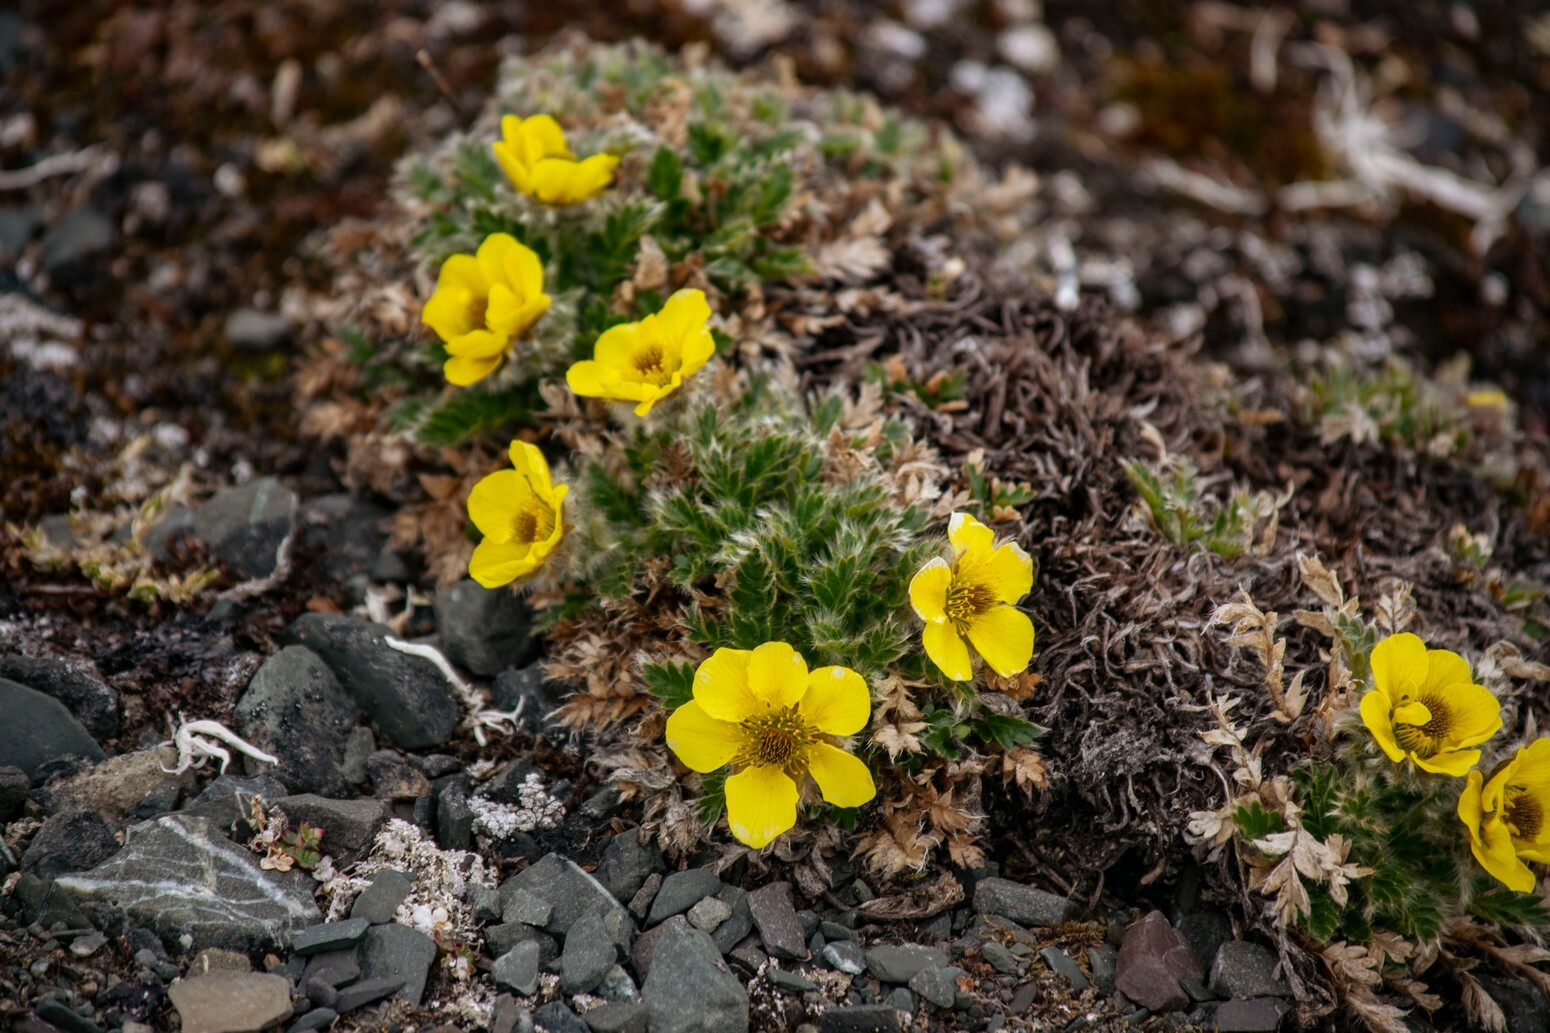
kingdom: Plantae
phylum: Tracheophyta
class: Magnoliopsida
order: Rosales
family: Rosaceae
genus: Geum
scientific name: Geum glaciale
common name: Glacier avens
